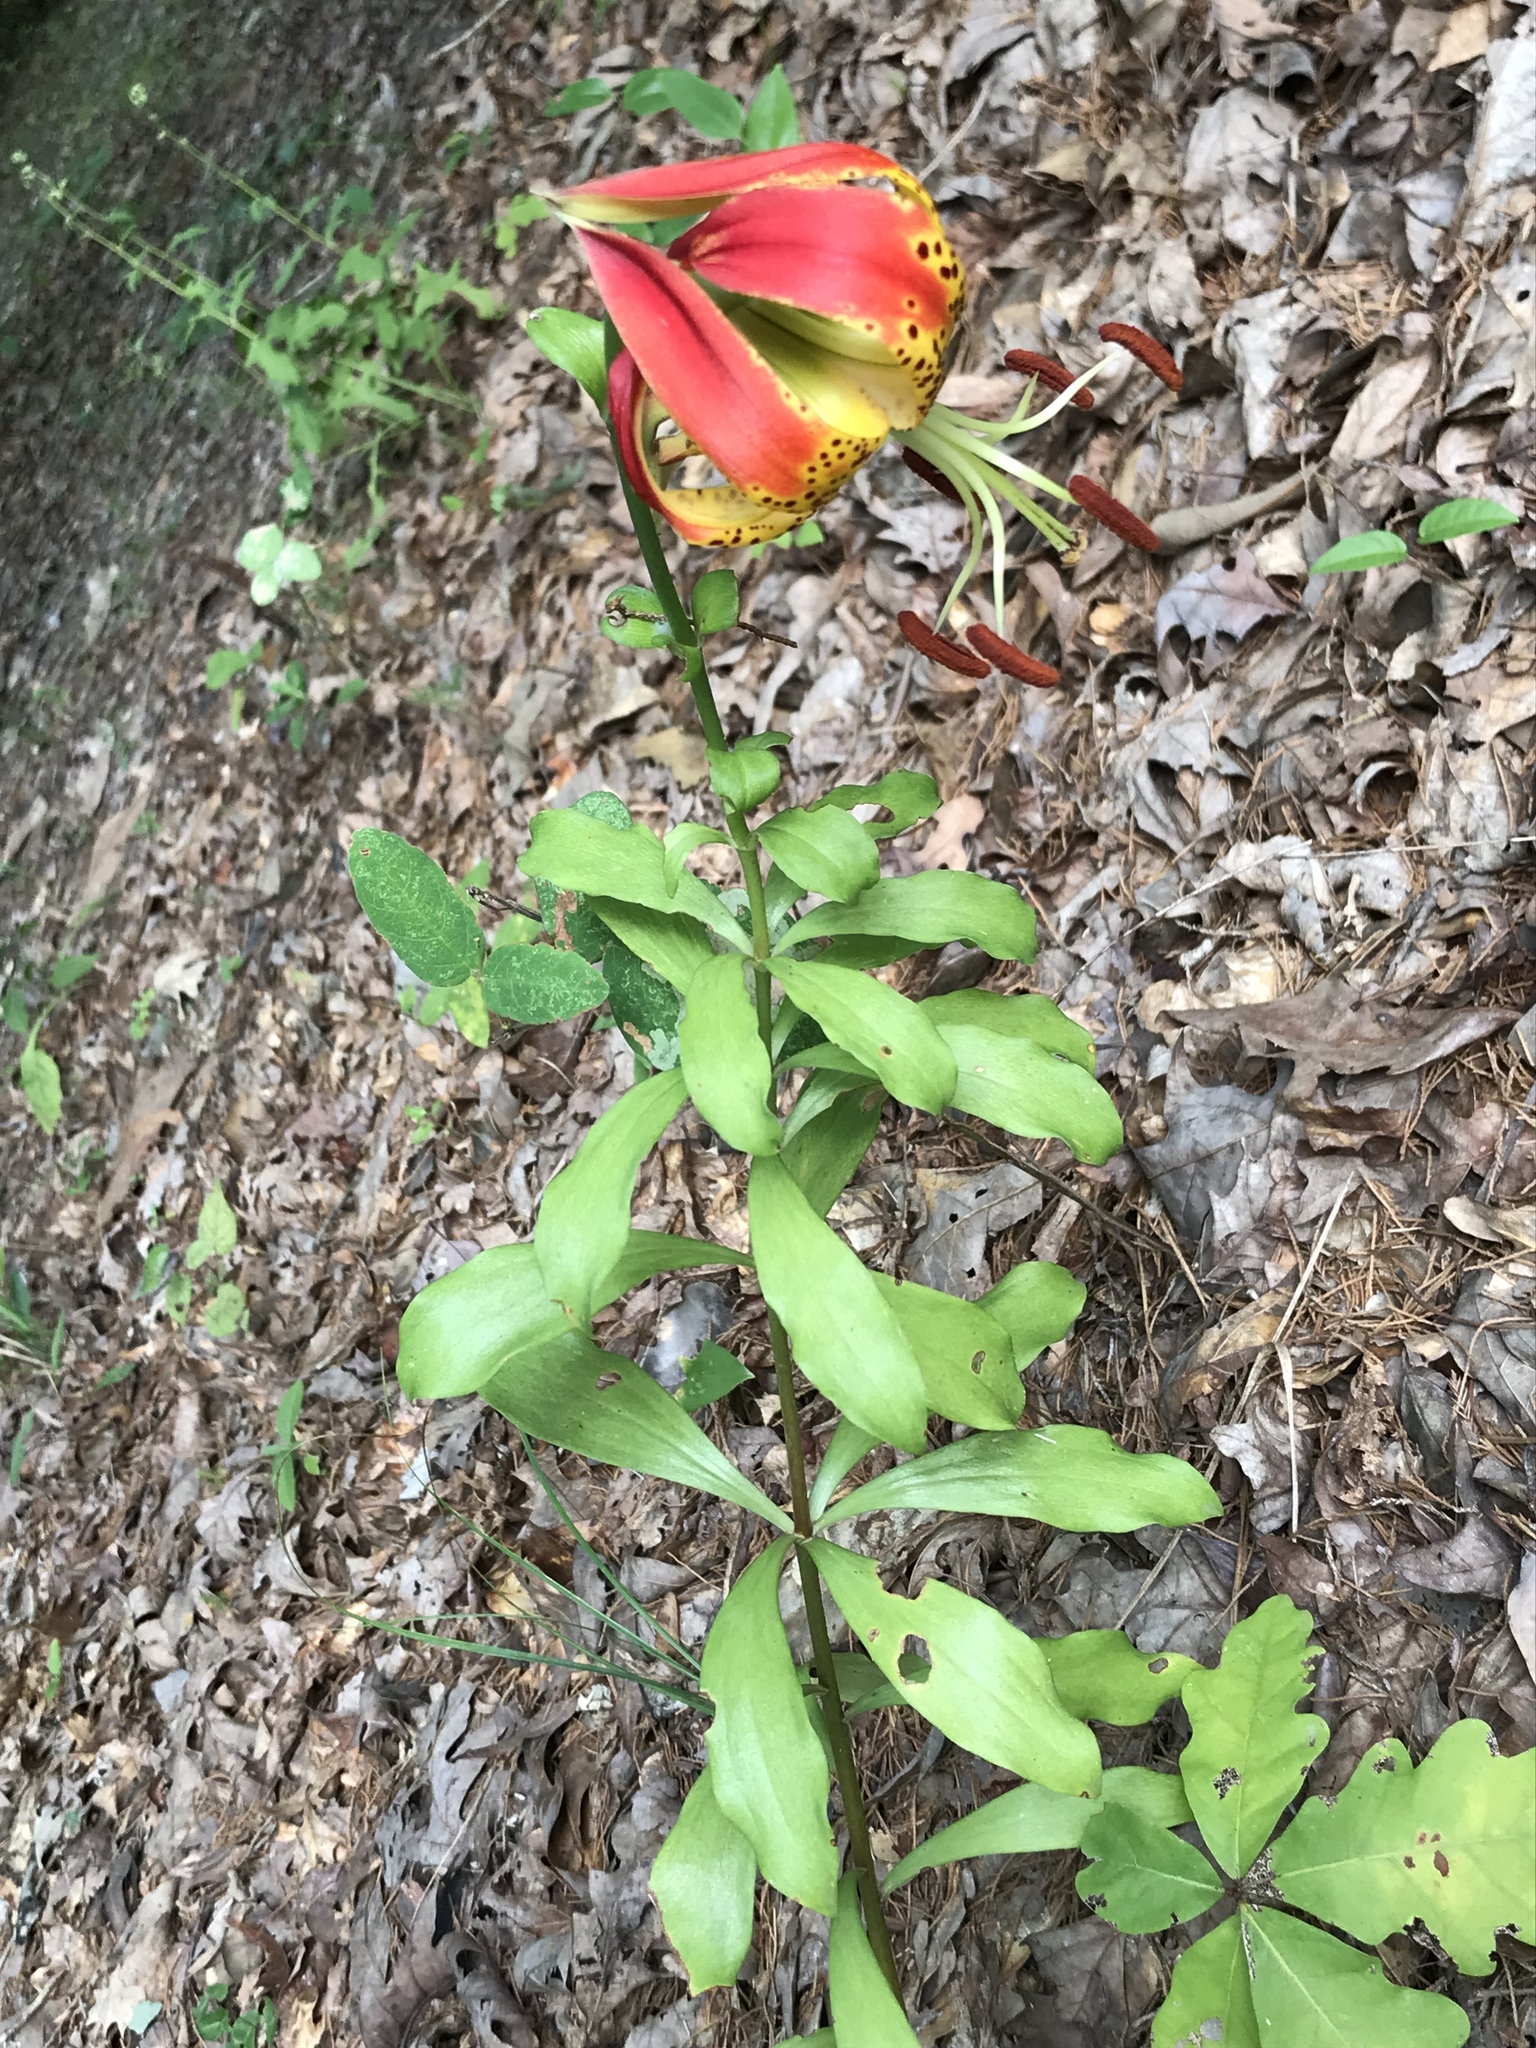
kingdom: Plantae
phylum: Tracheophyta
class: Liliopsida
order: Liliales
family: Liliaceae
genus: Lilium
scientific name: Lilium michauxii
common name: Carolina lily
